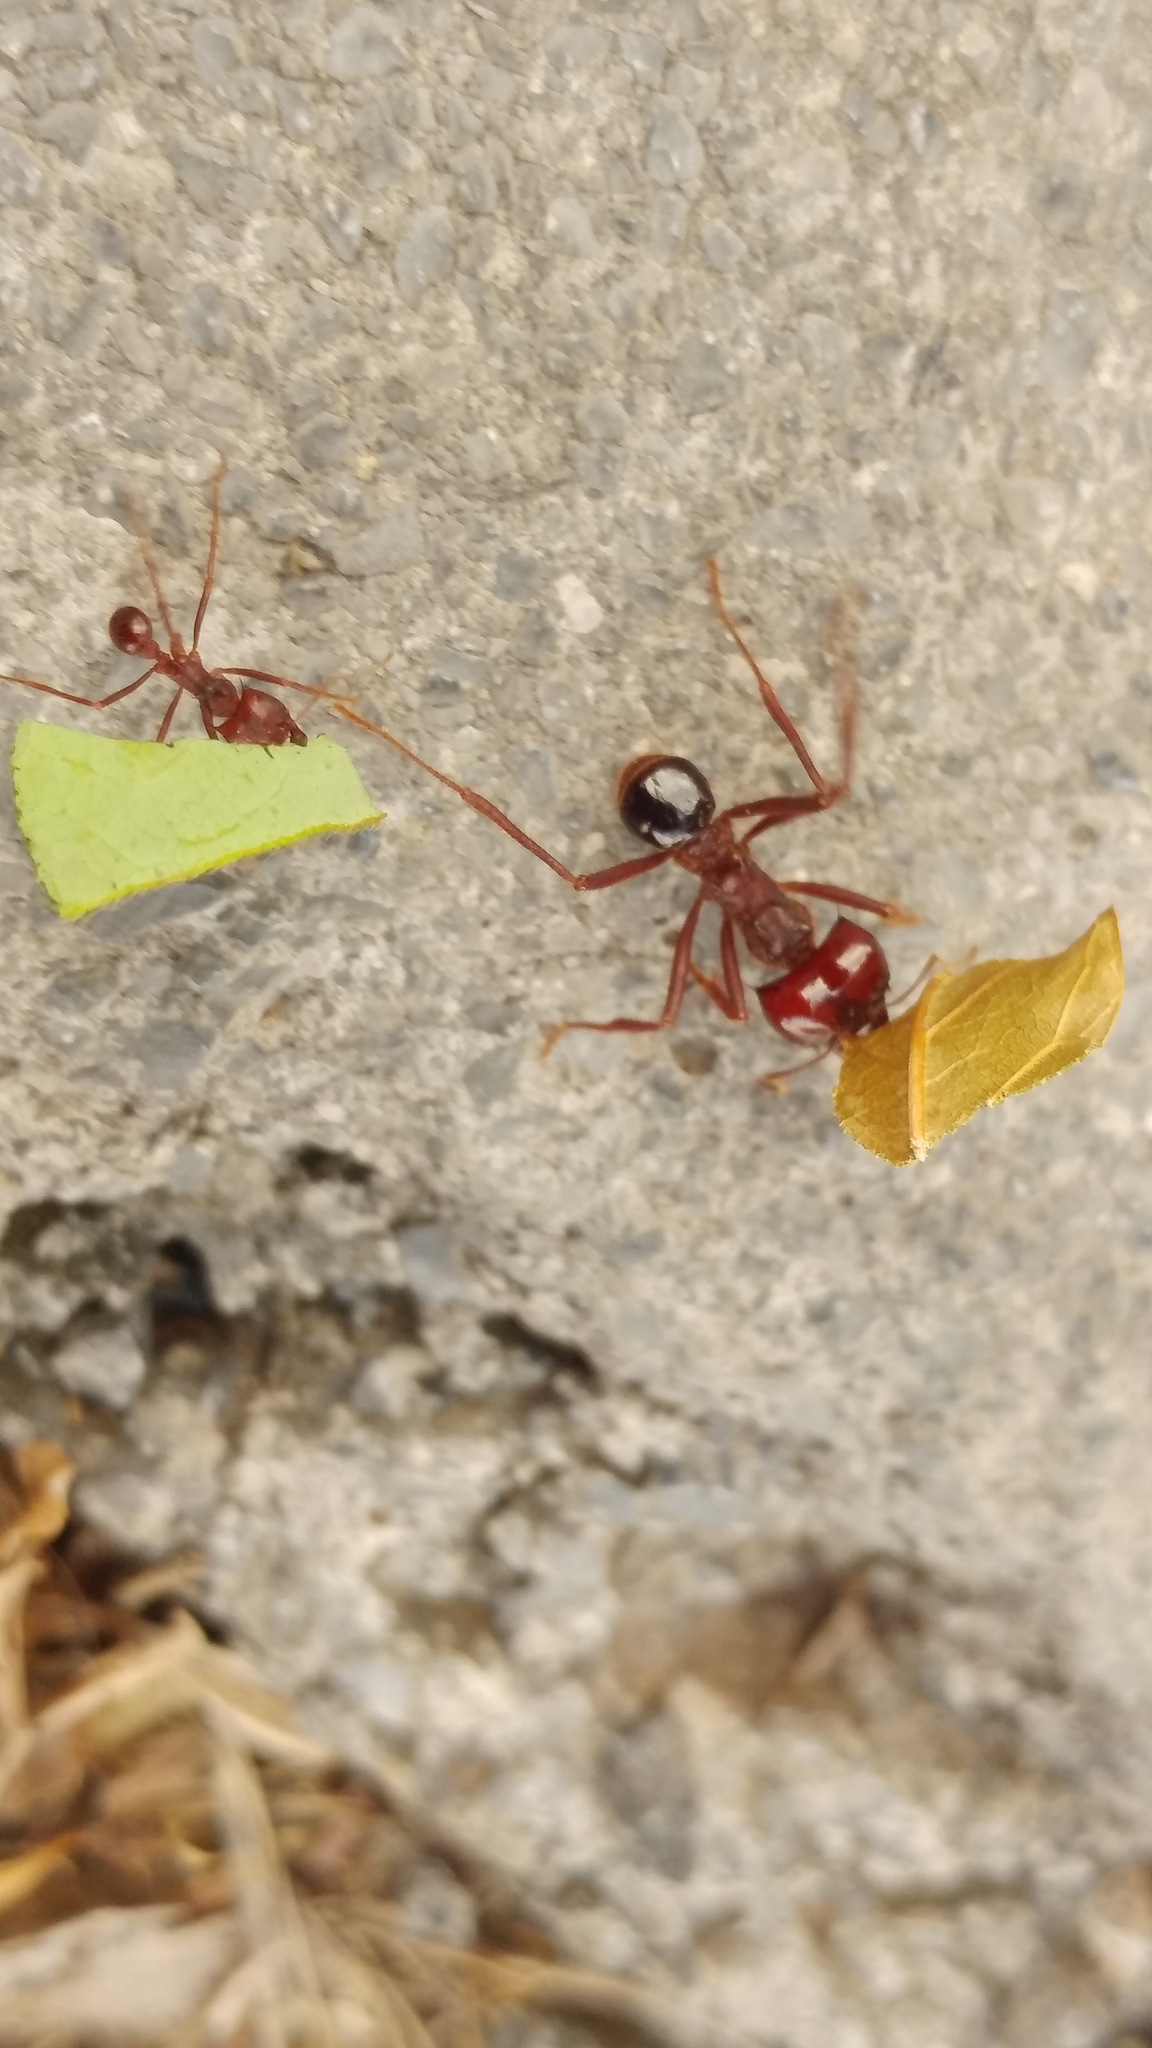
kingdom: Animalia
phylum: Arthropoda
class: Insecta
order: Hymenoptera
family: Formicidae
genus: Atta
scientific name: Atta mexicana
